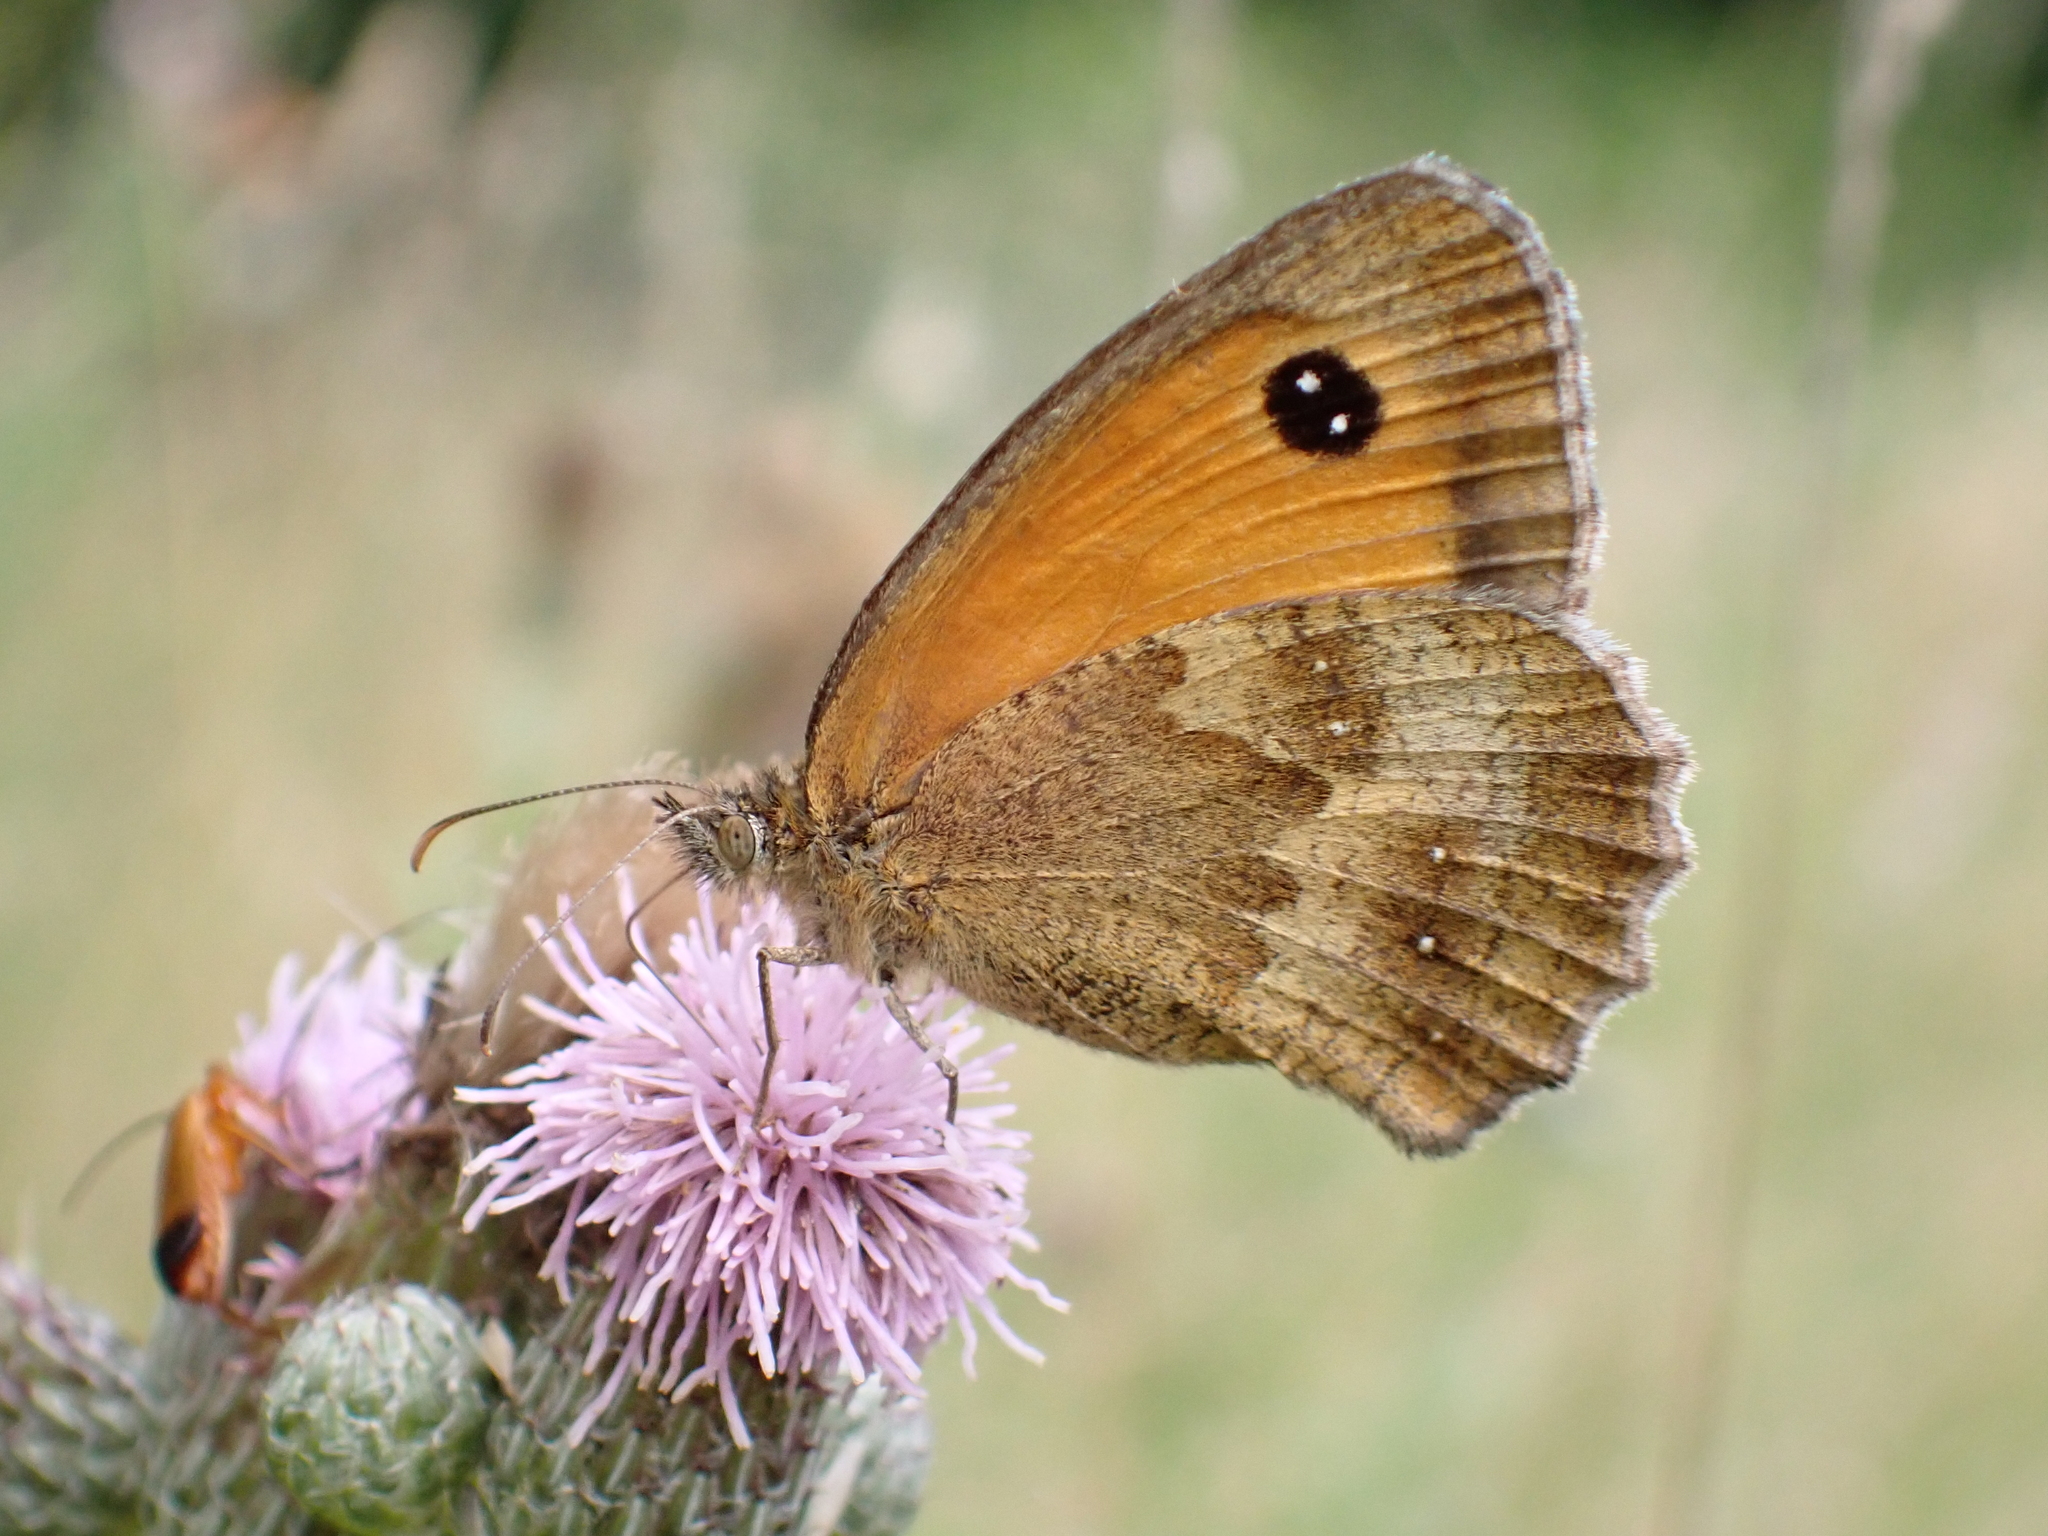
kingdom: Animalia
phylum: Arthropoda
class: Insecta
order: Lepidoptera
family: Nymphalidae
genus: Pyronia
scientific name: Pyronia tithonus
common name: Gatekeeper
